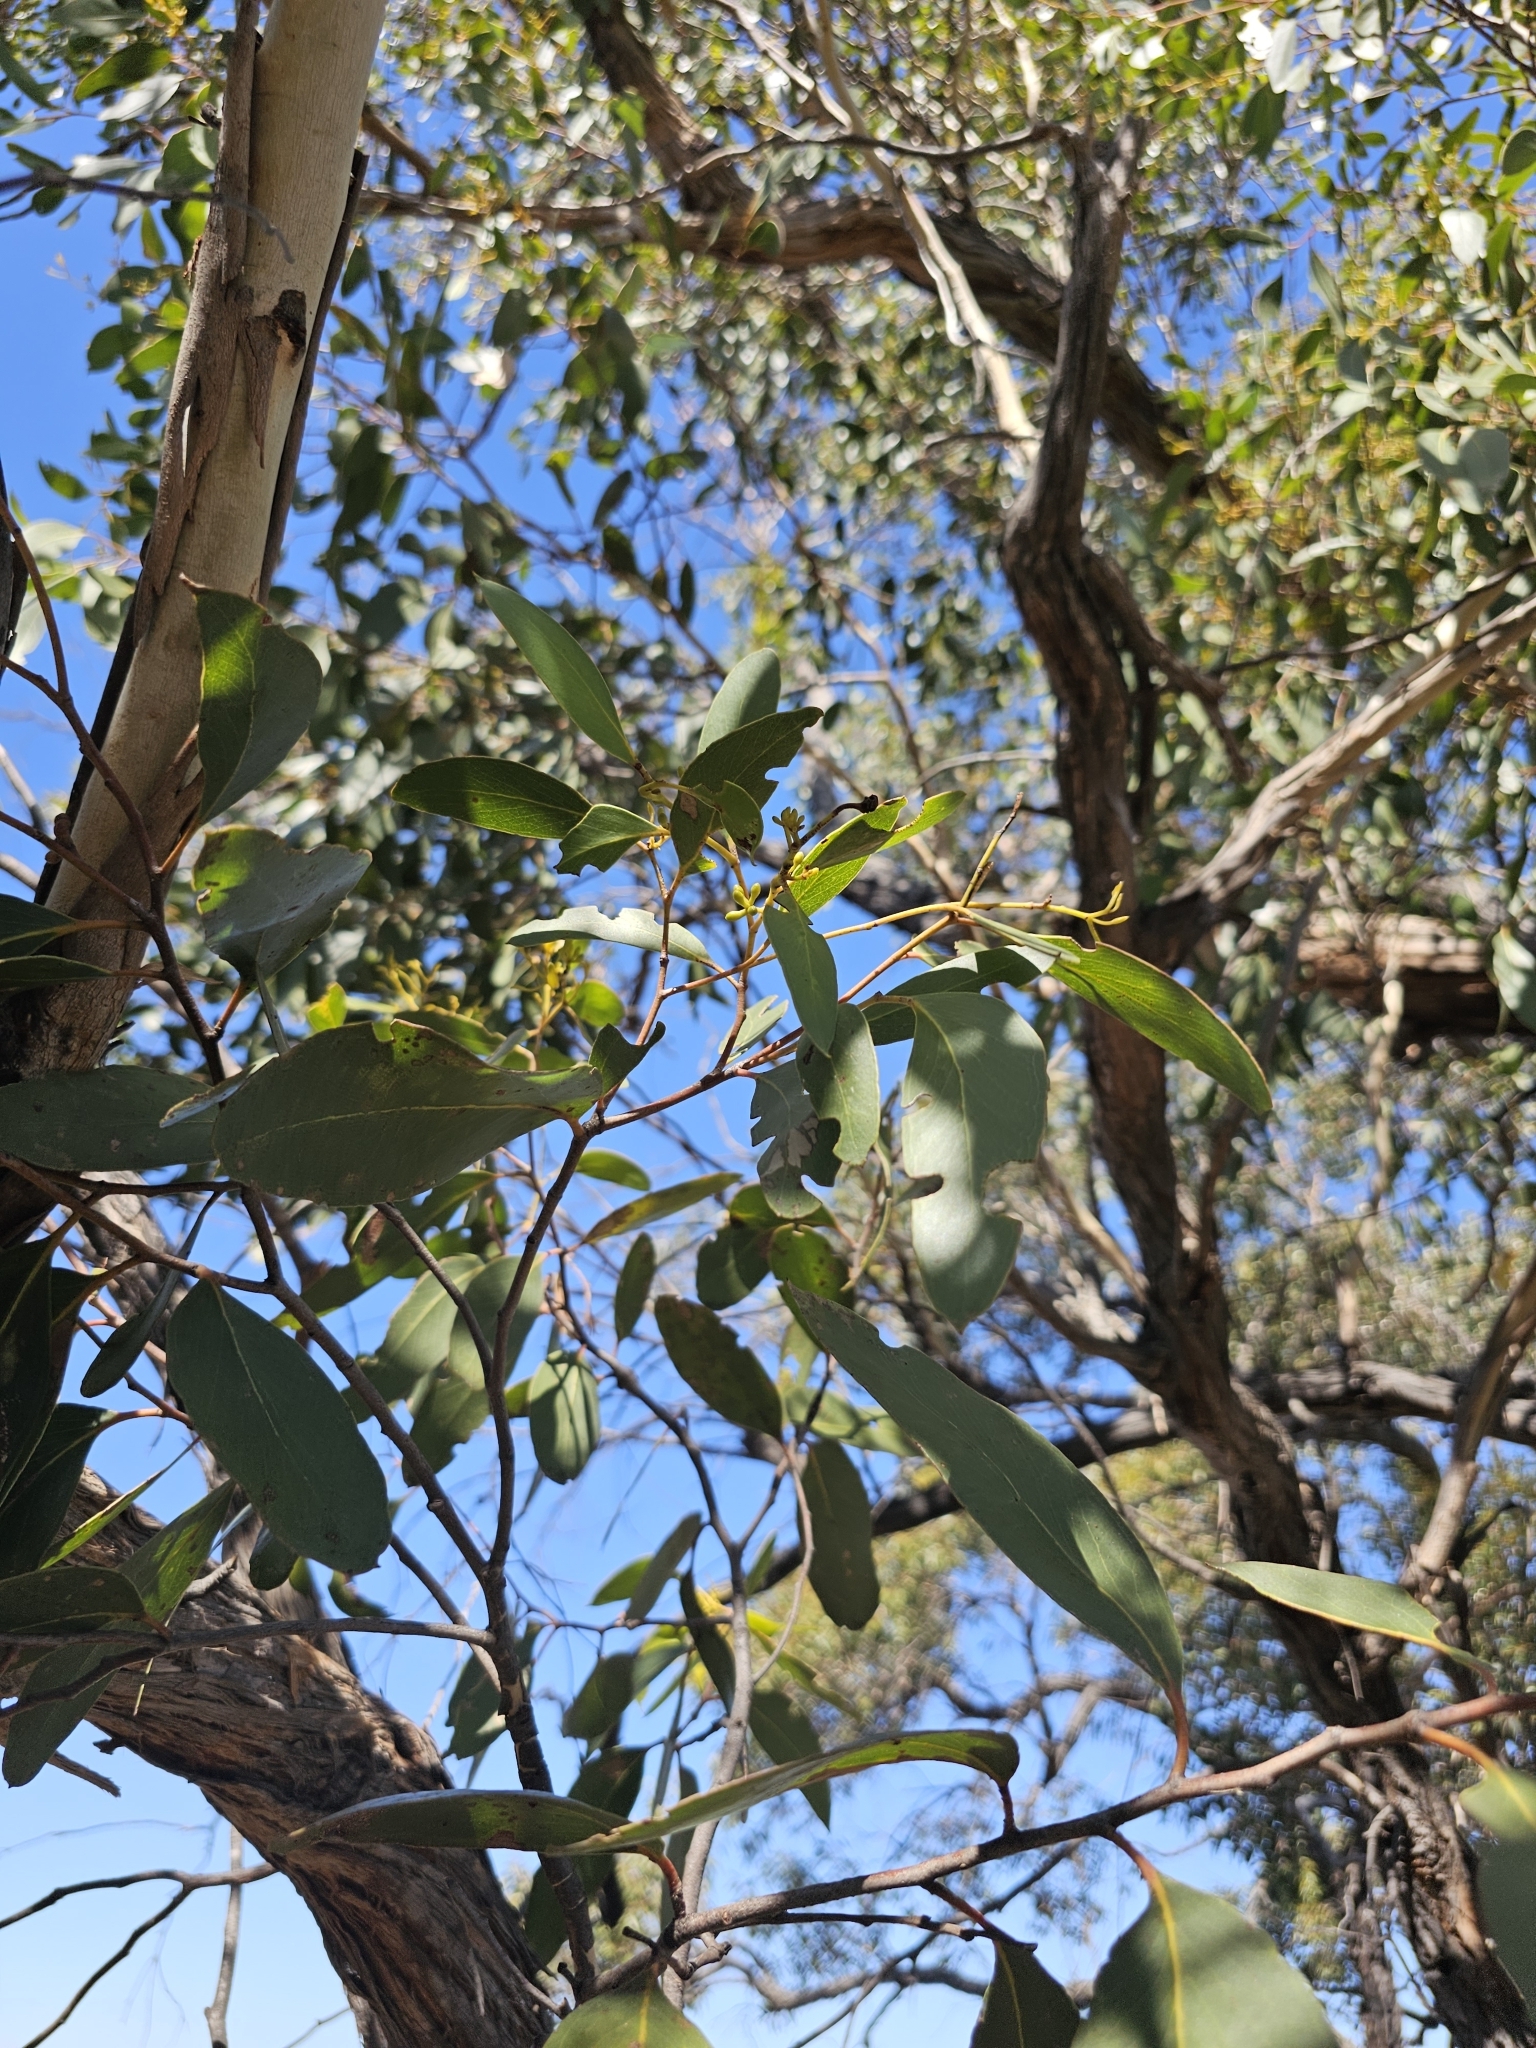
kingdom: Plantae
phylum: Tracheophyta
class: Magnoliopsida
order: Myrtales
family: Myrtaceae
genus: Eucalyptus
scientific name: Eucalyptus arenacea
